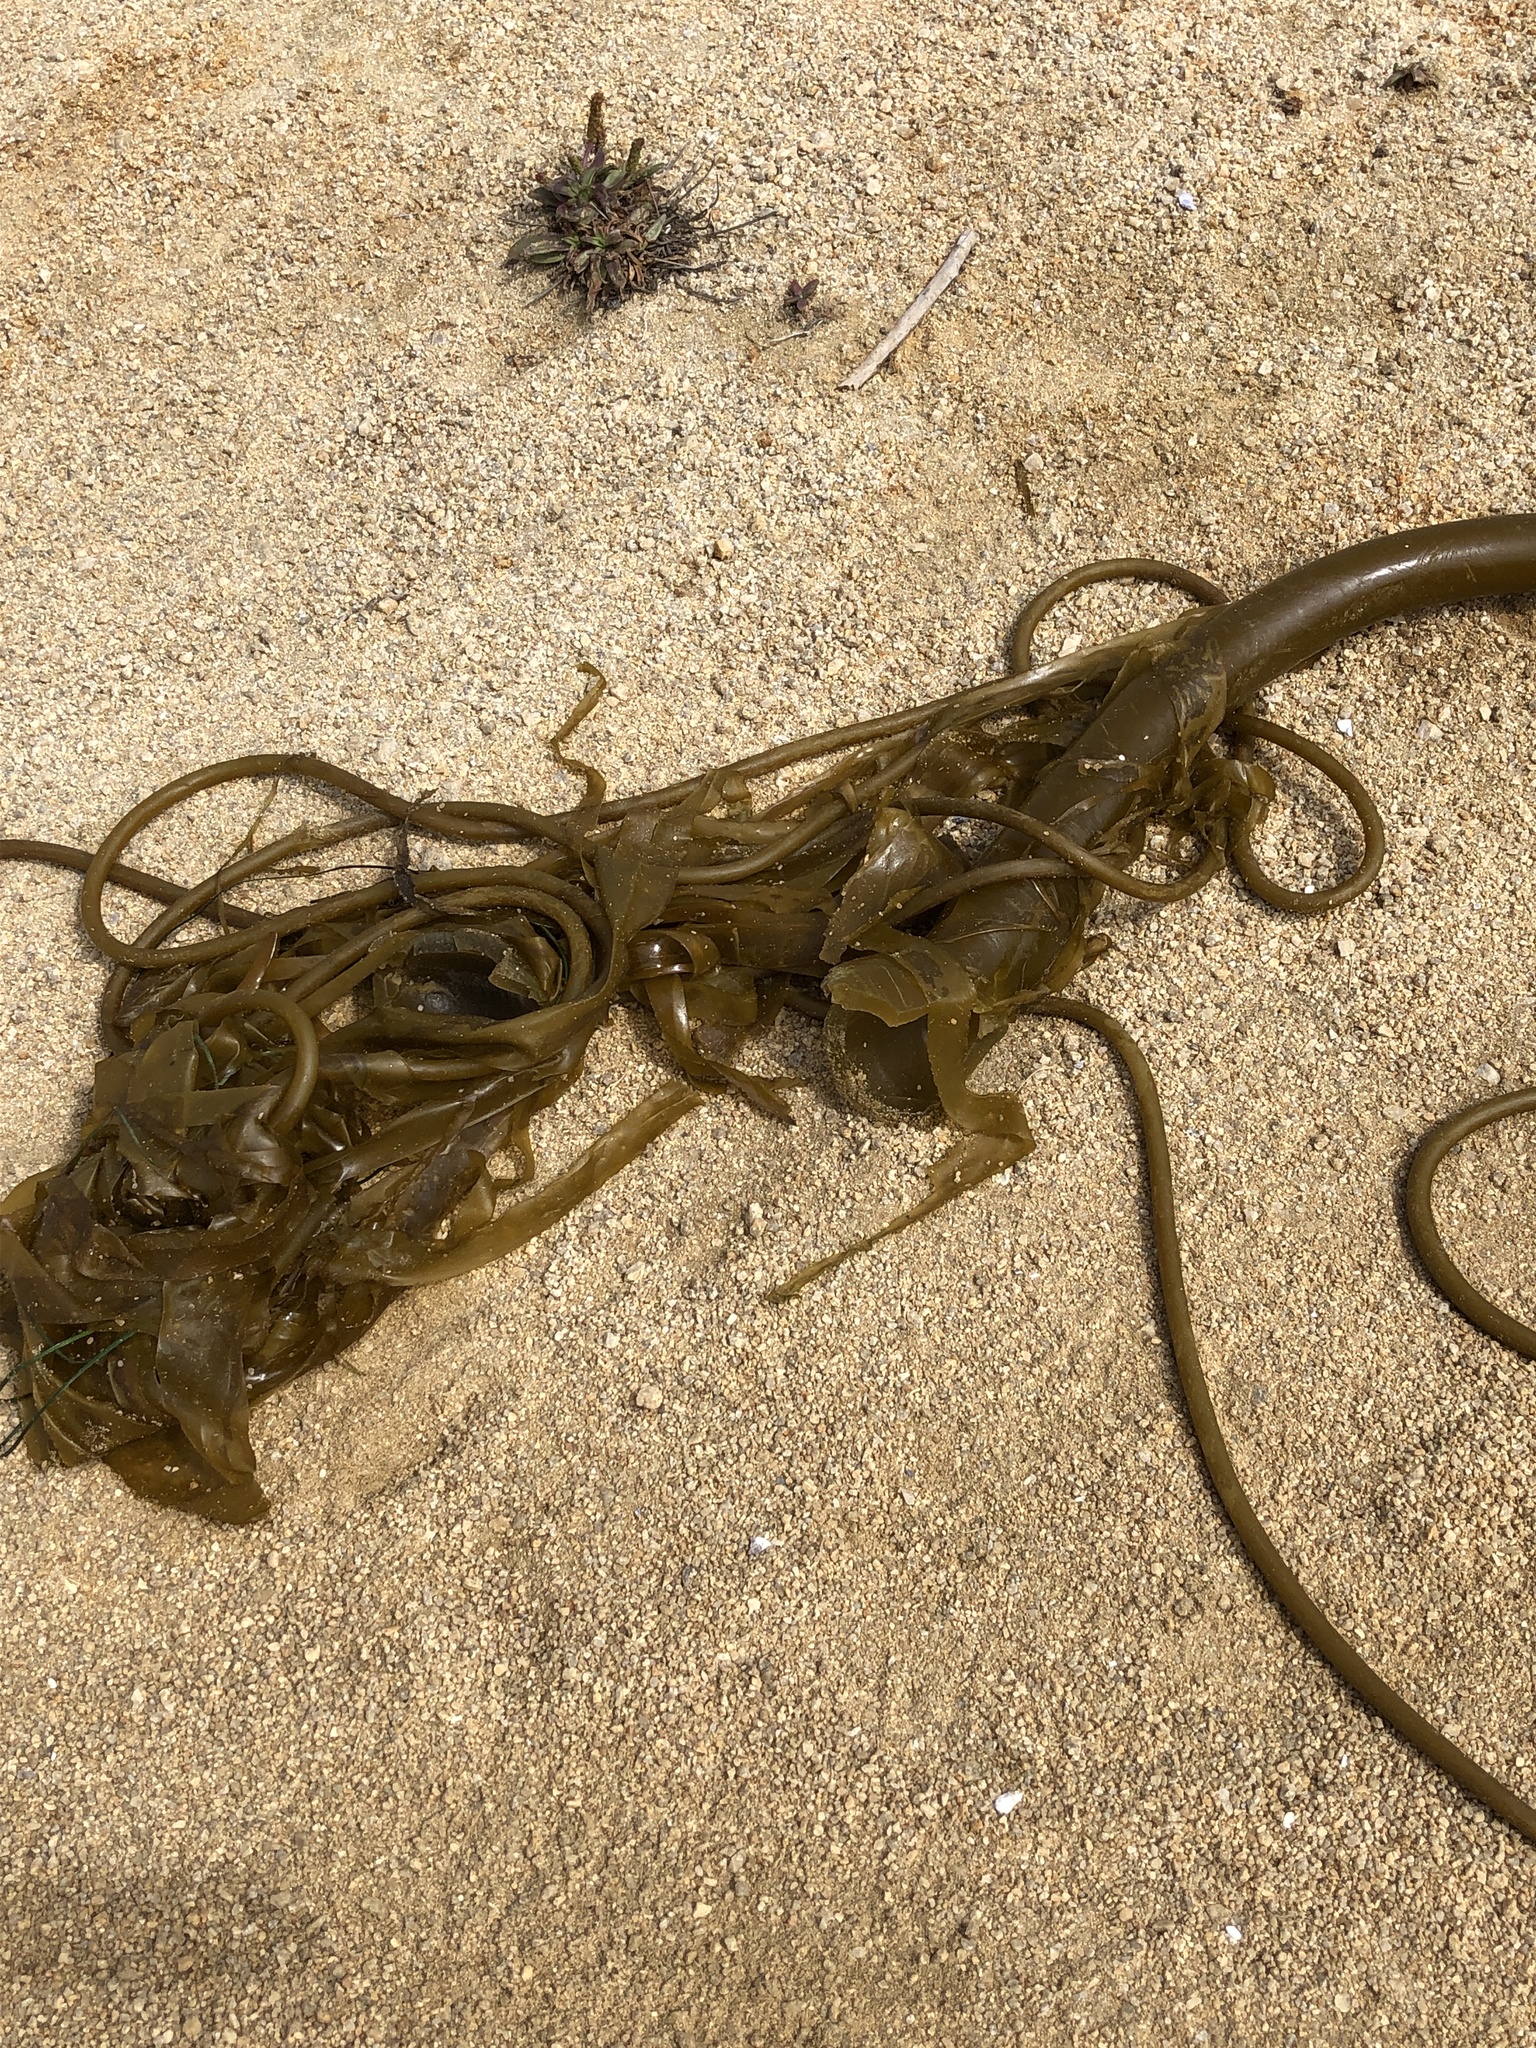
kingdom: Chromista
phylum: Ochrophyta
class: Phaeophyceae
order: Laminariales
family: Laminariaceae
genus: Nereocystis
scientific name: Nereocystis luetkeana
